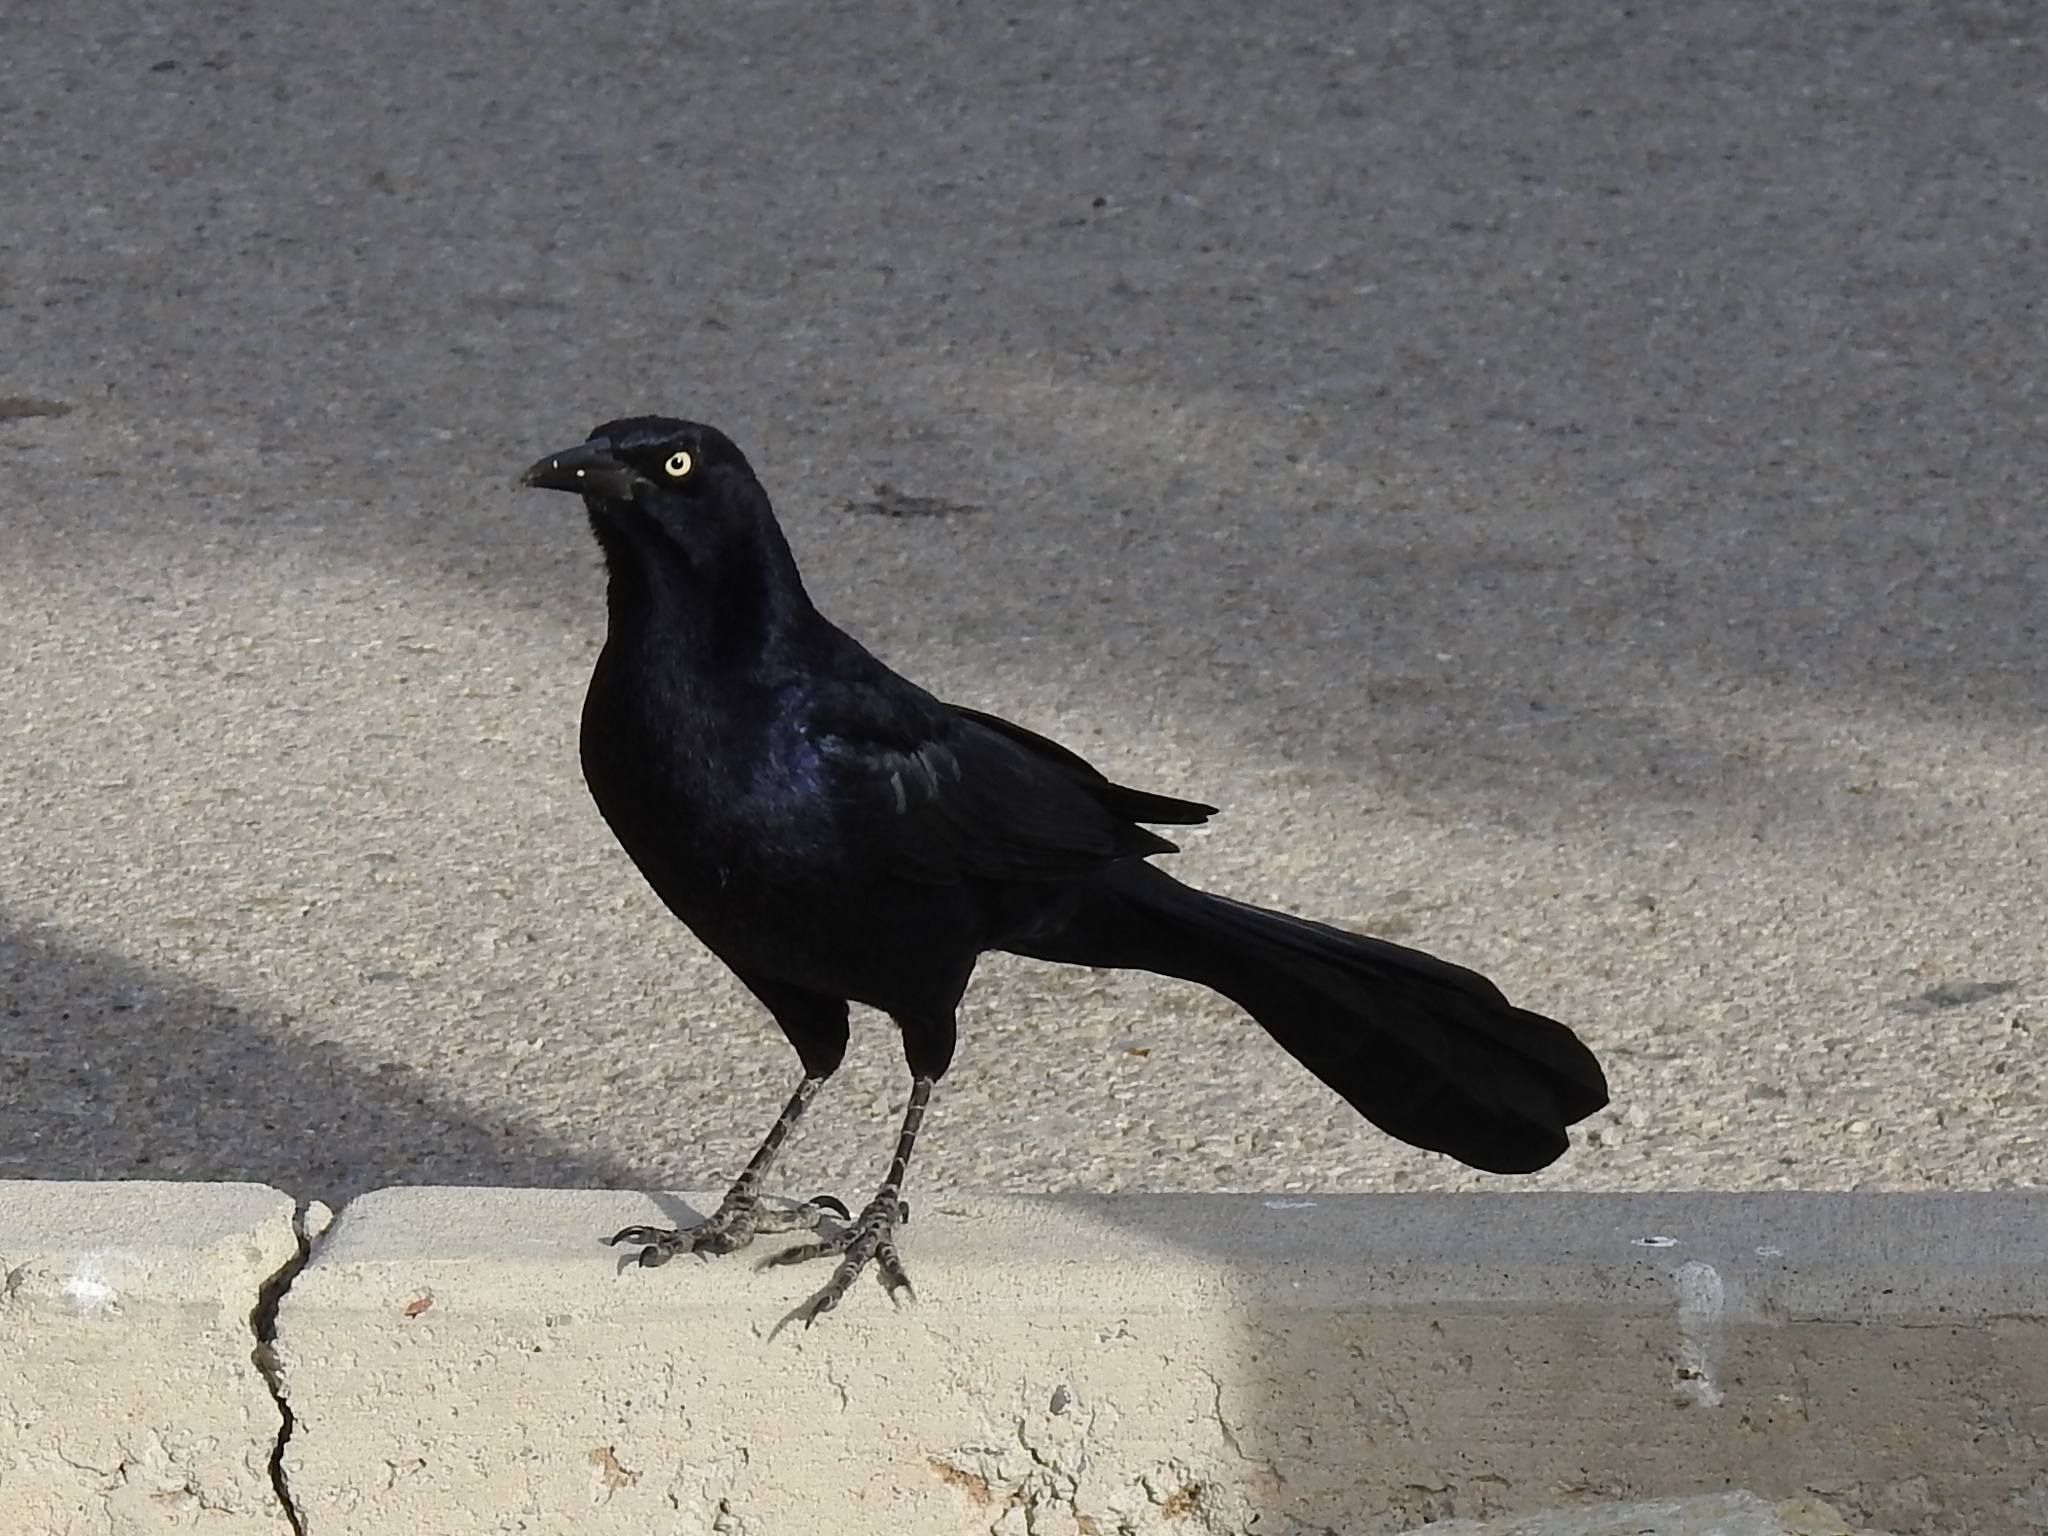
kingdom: Animalia
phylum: Chordata
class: Aves
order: Passeriformes
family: Icteridae
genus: Quiscalus
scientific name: Quiscalus mexicanus
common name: Great-tailed grackle
